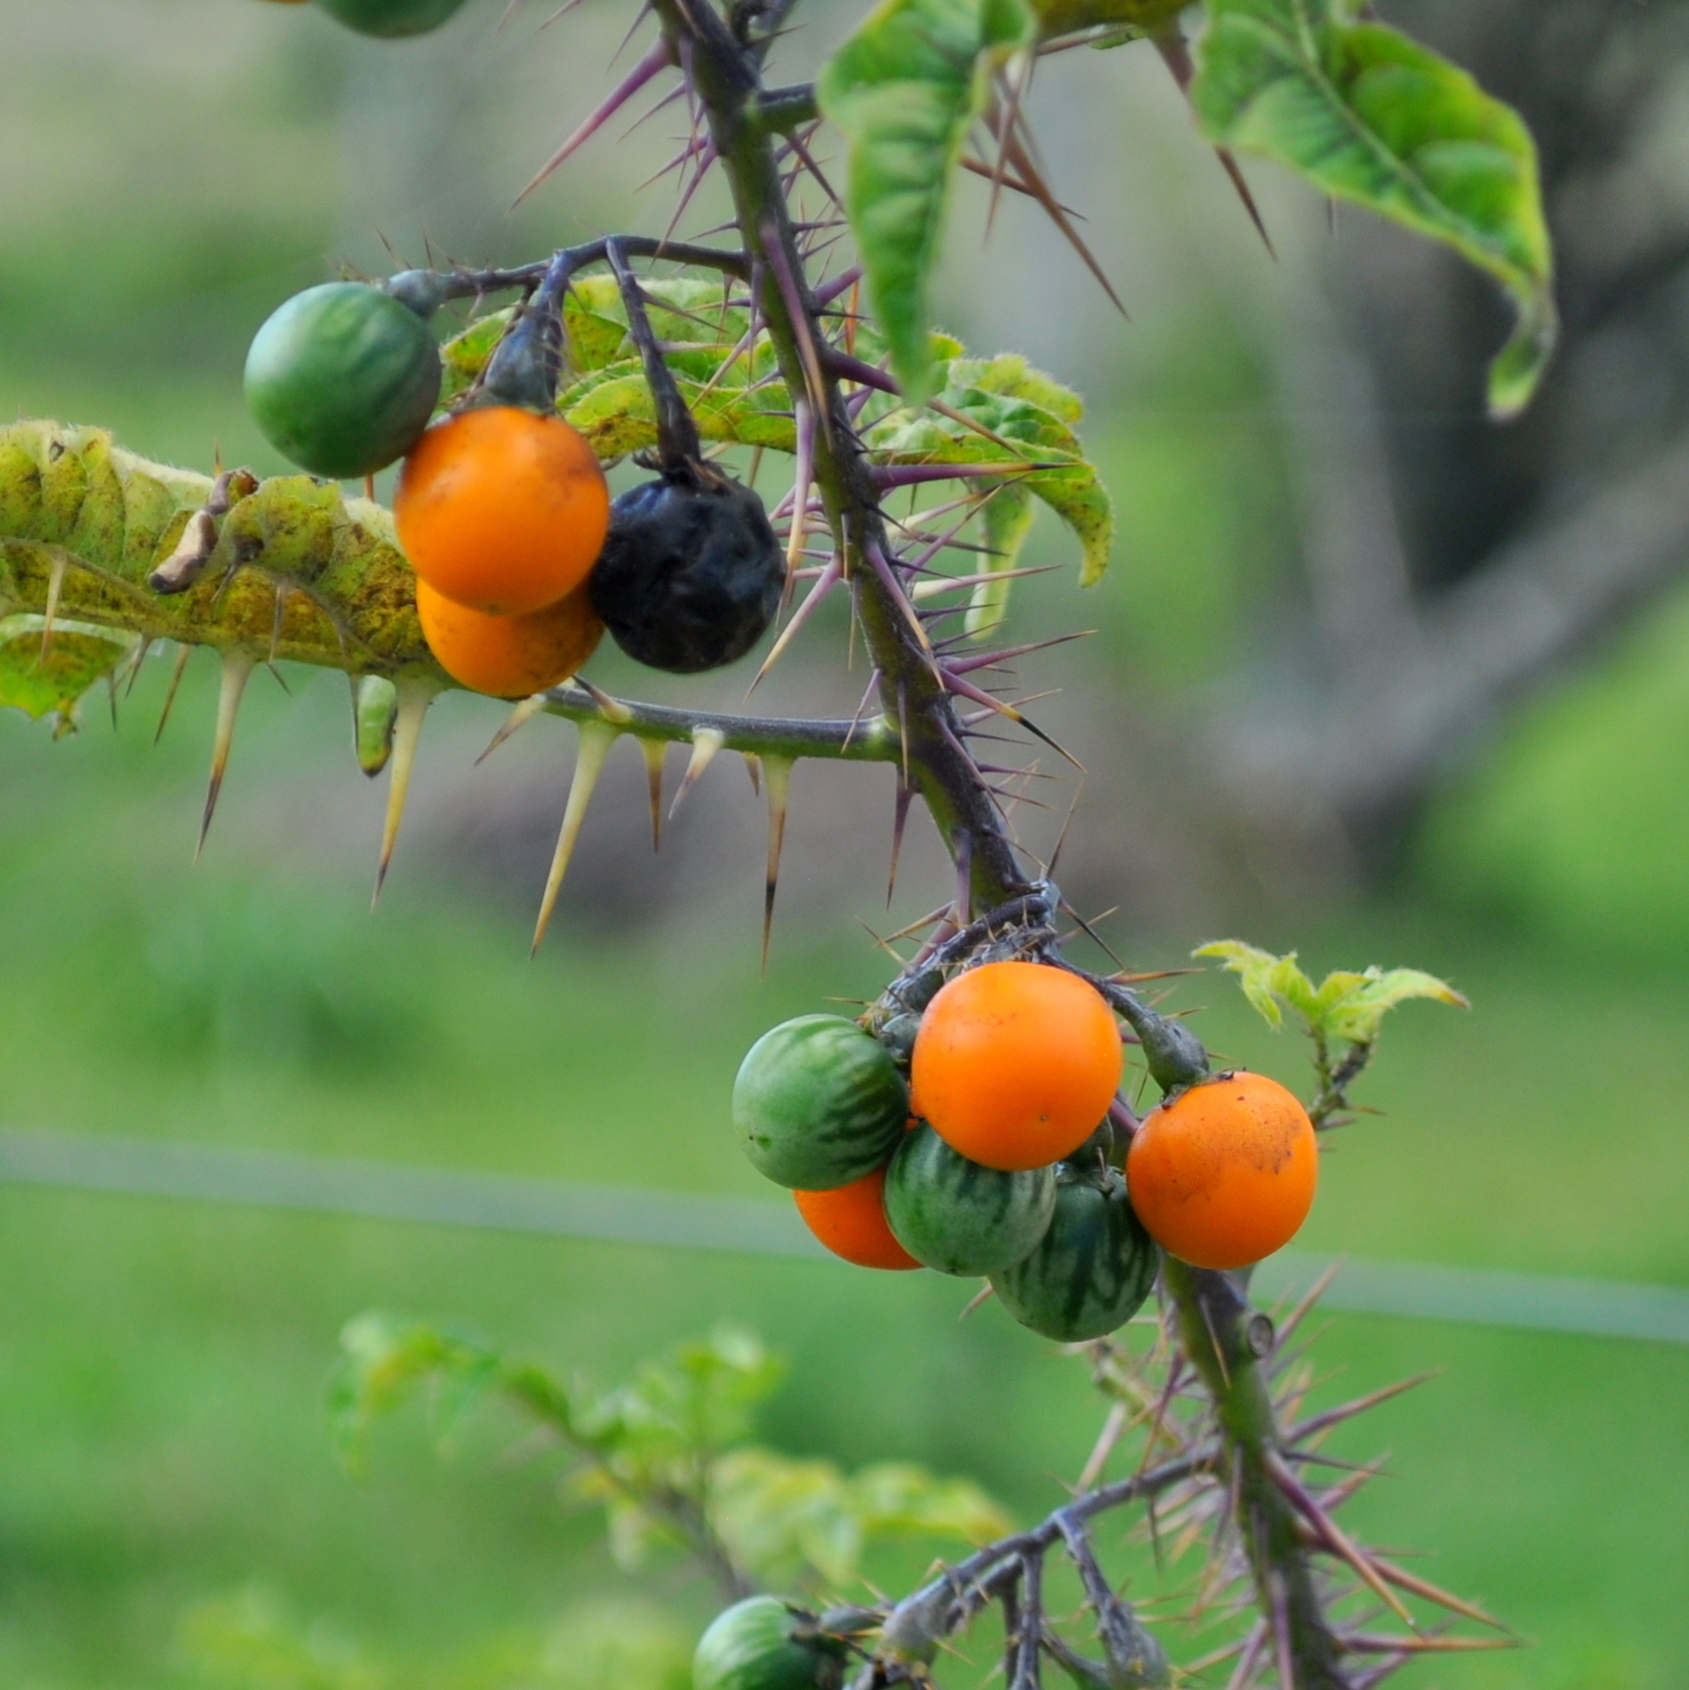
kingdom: Plantae
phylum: Tracheophyta
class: Magnoliopsida
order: Solanales
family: Solanaceae
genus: Solanum
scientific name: Solanum atropurpureum
